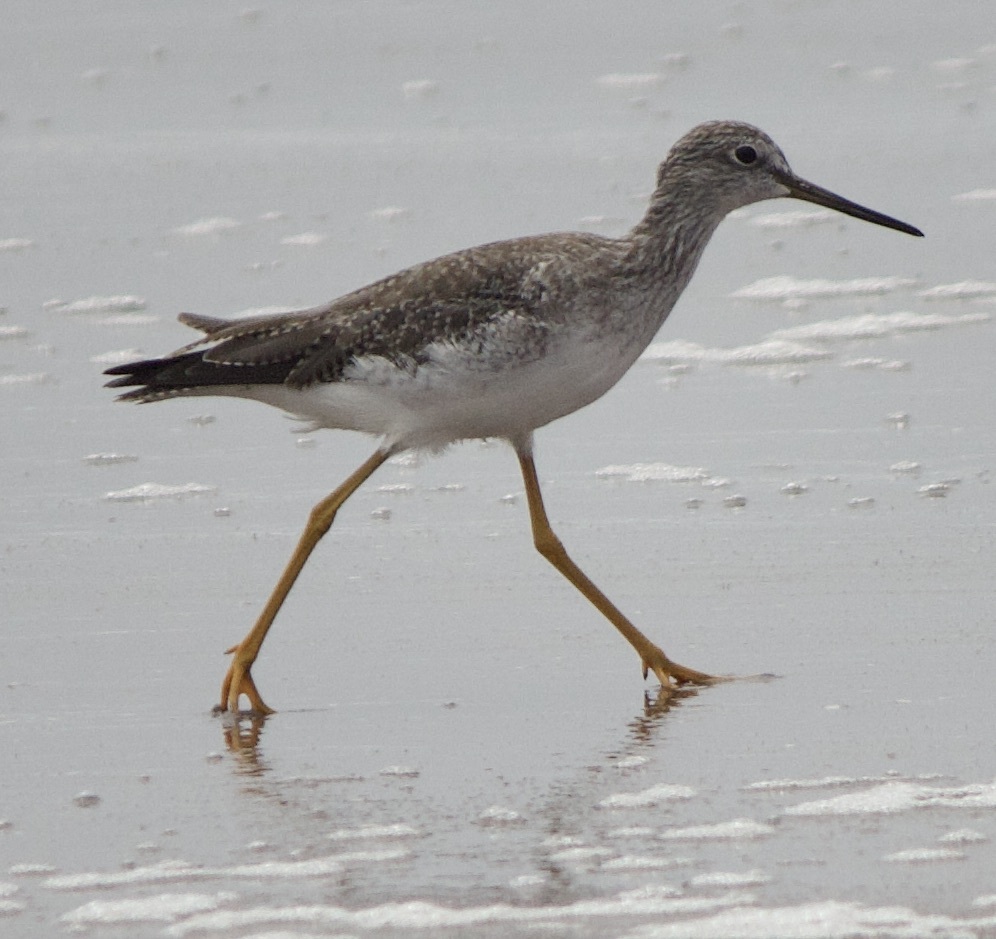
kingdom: Animalia
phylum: Chordata
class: Aves
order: Charadriiformes
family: Scolopacidae
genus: Tringa
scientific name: Tringa melanoleuca
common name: Greater yellowlegs
